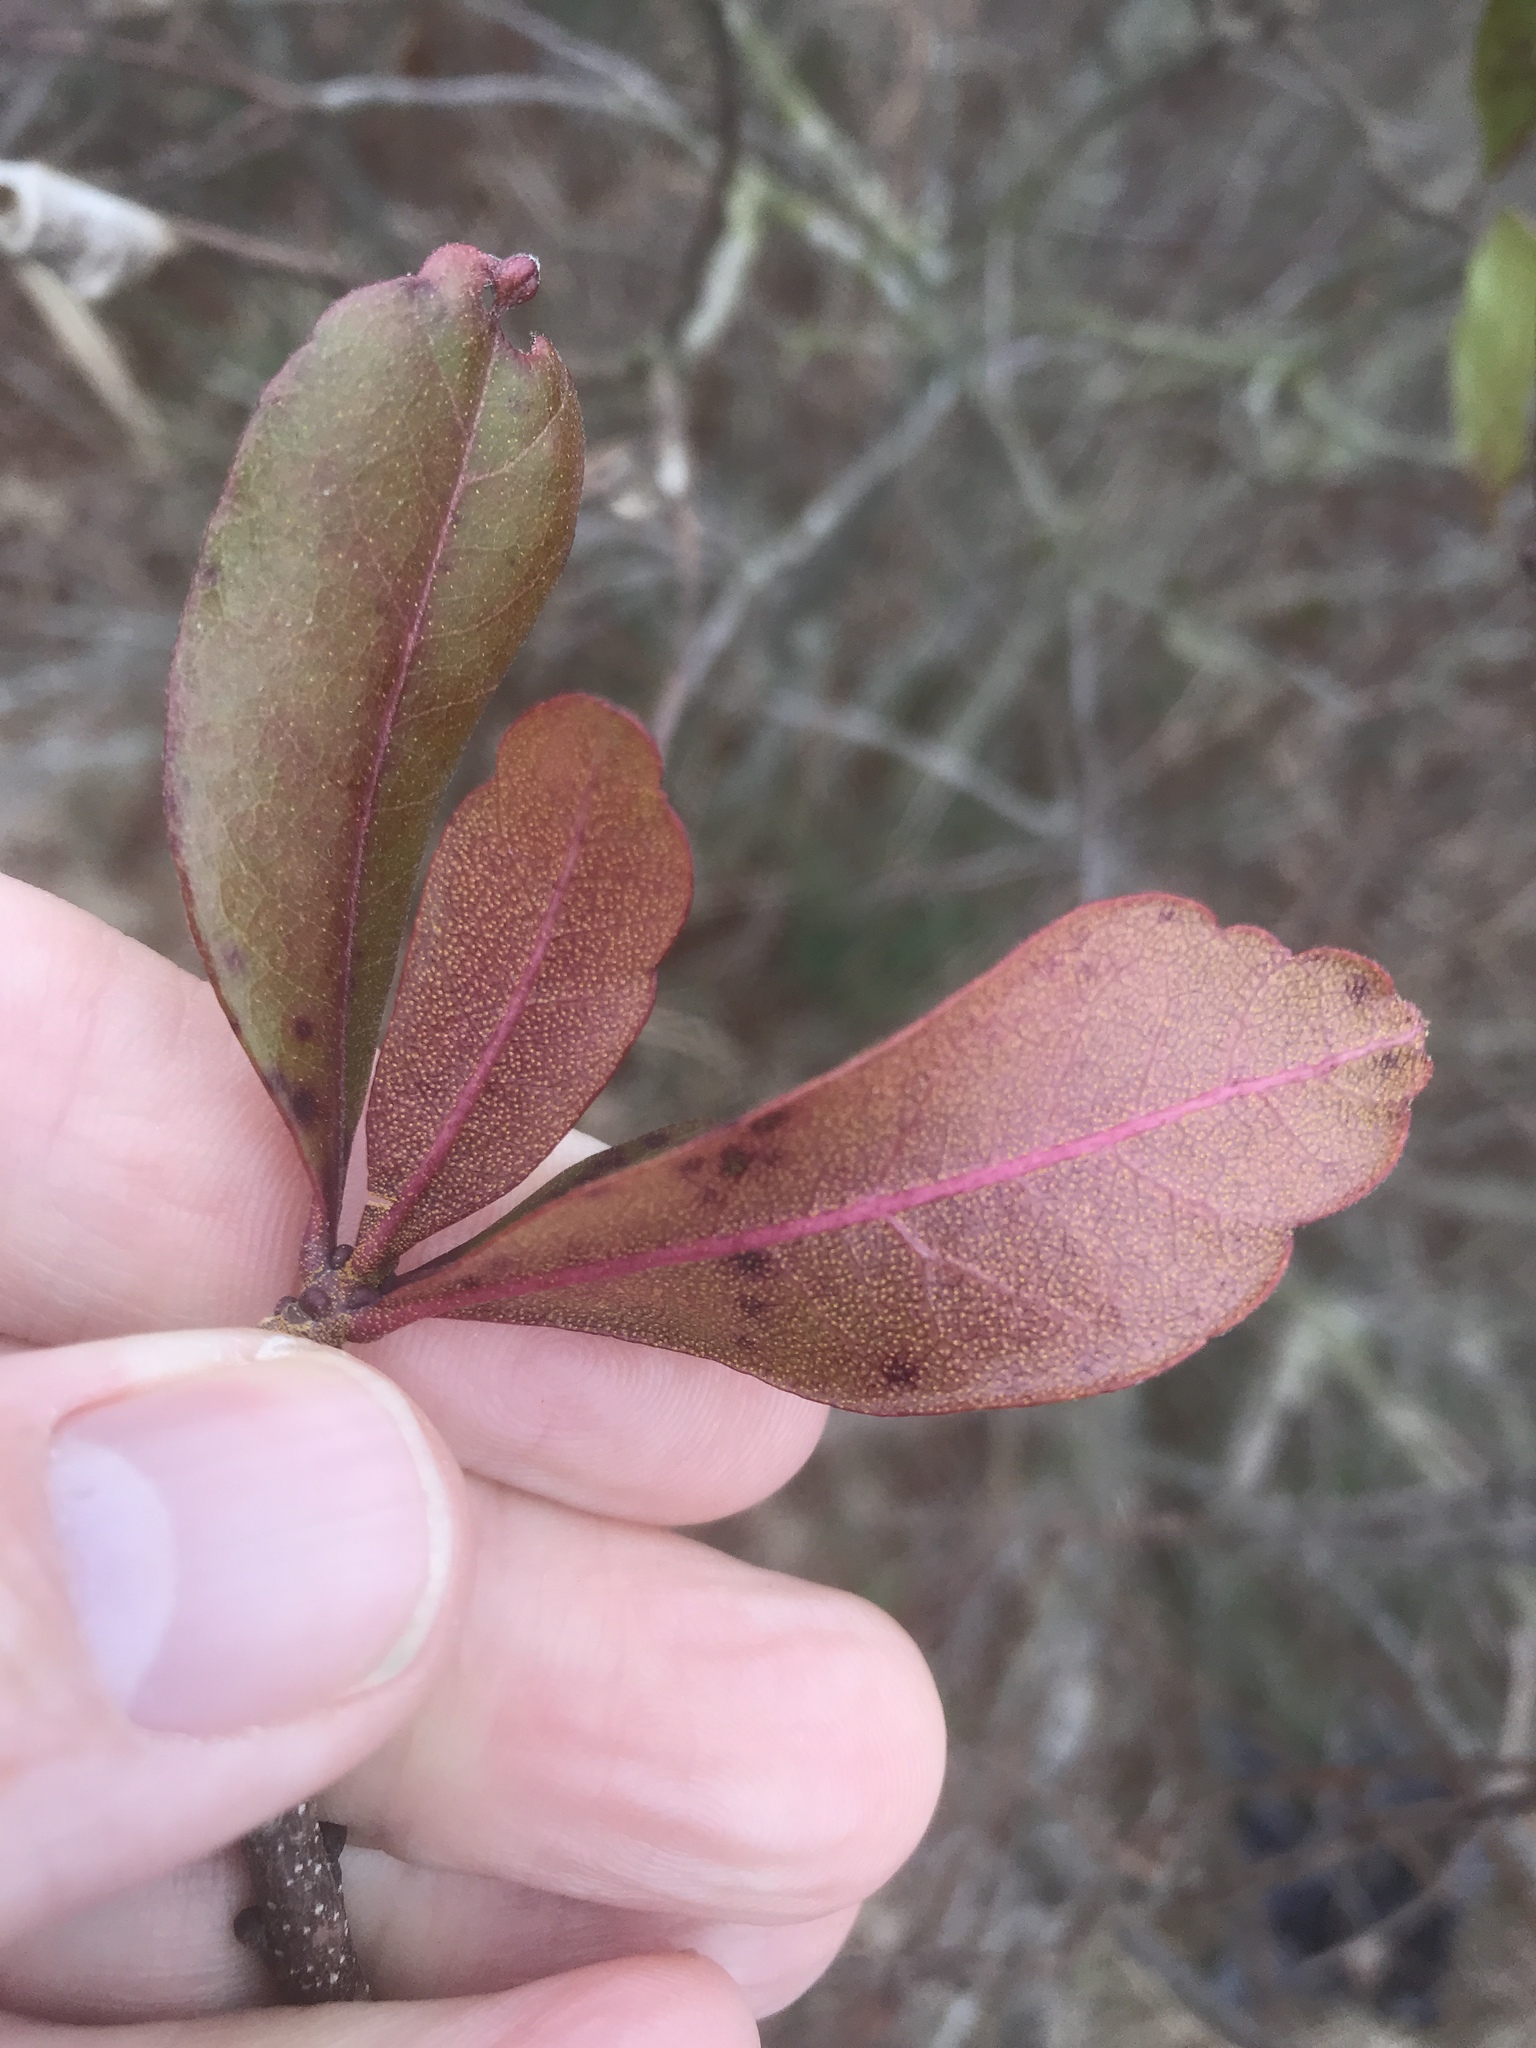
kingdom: Plantae
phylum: Tracheophyta
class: Magnoliopsida
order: Fagales
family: Myricaceae
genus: Morella
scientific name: Morella pensylvanica
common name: Northern bayberry
